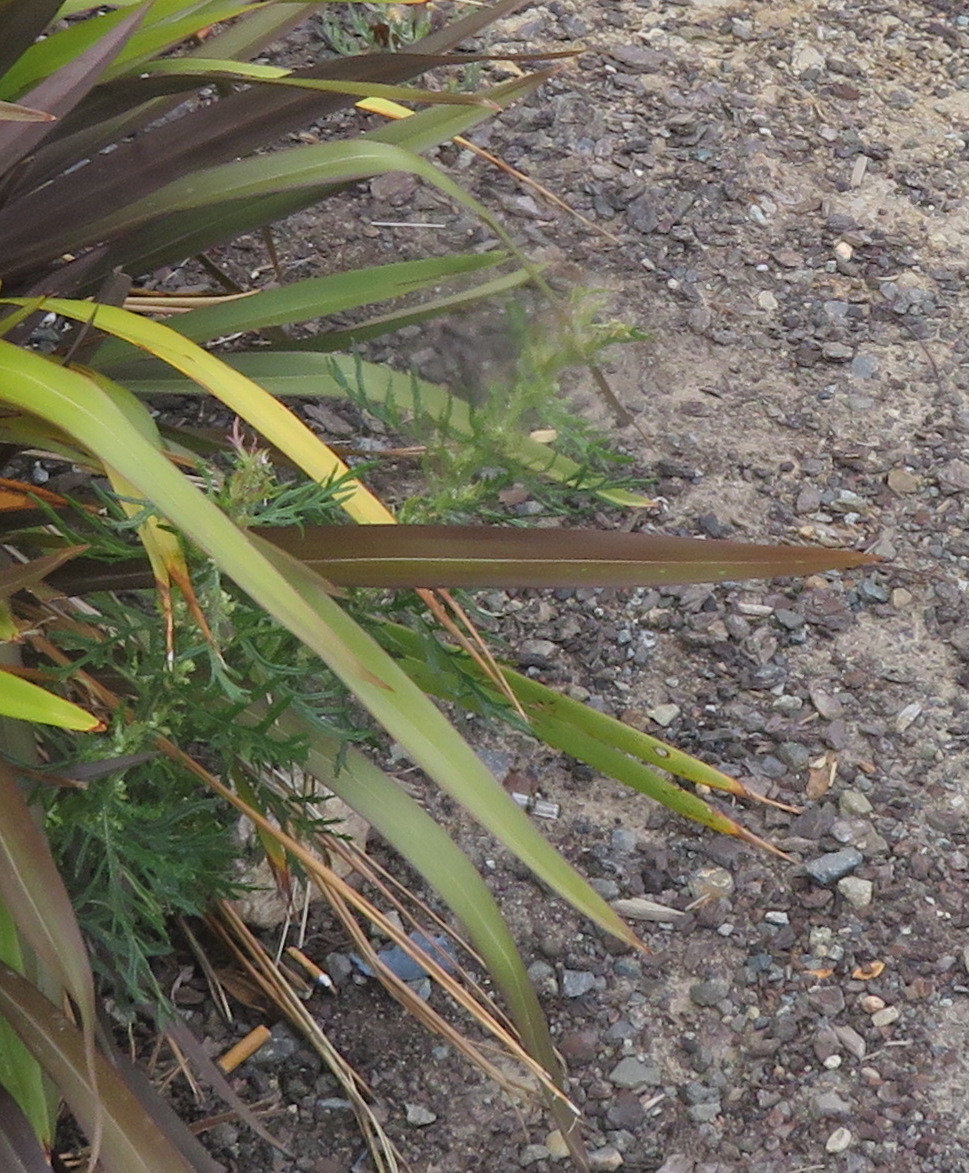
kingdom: Plantae
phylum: Tracheophyta
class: Magnoliopsida
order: Asterales
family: Asteraceae
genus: Senecio
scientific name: Senecio esleri
